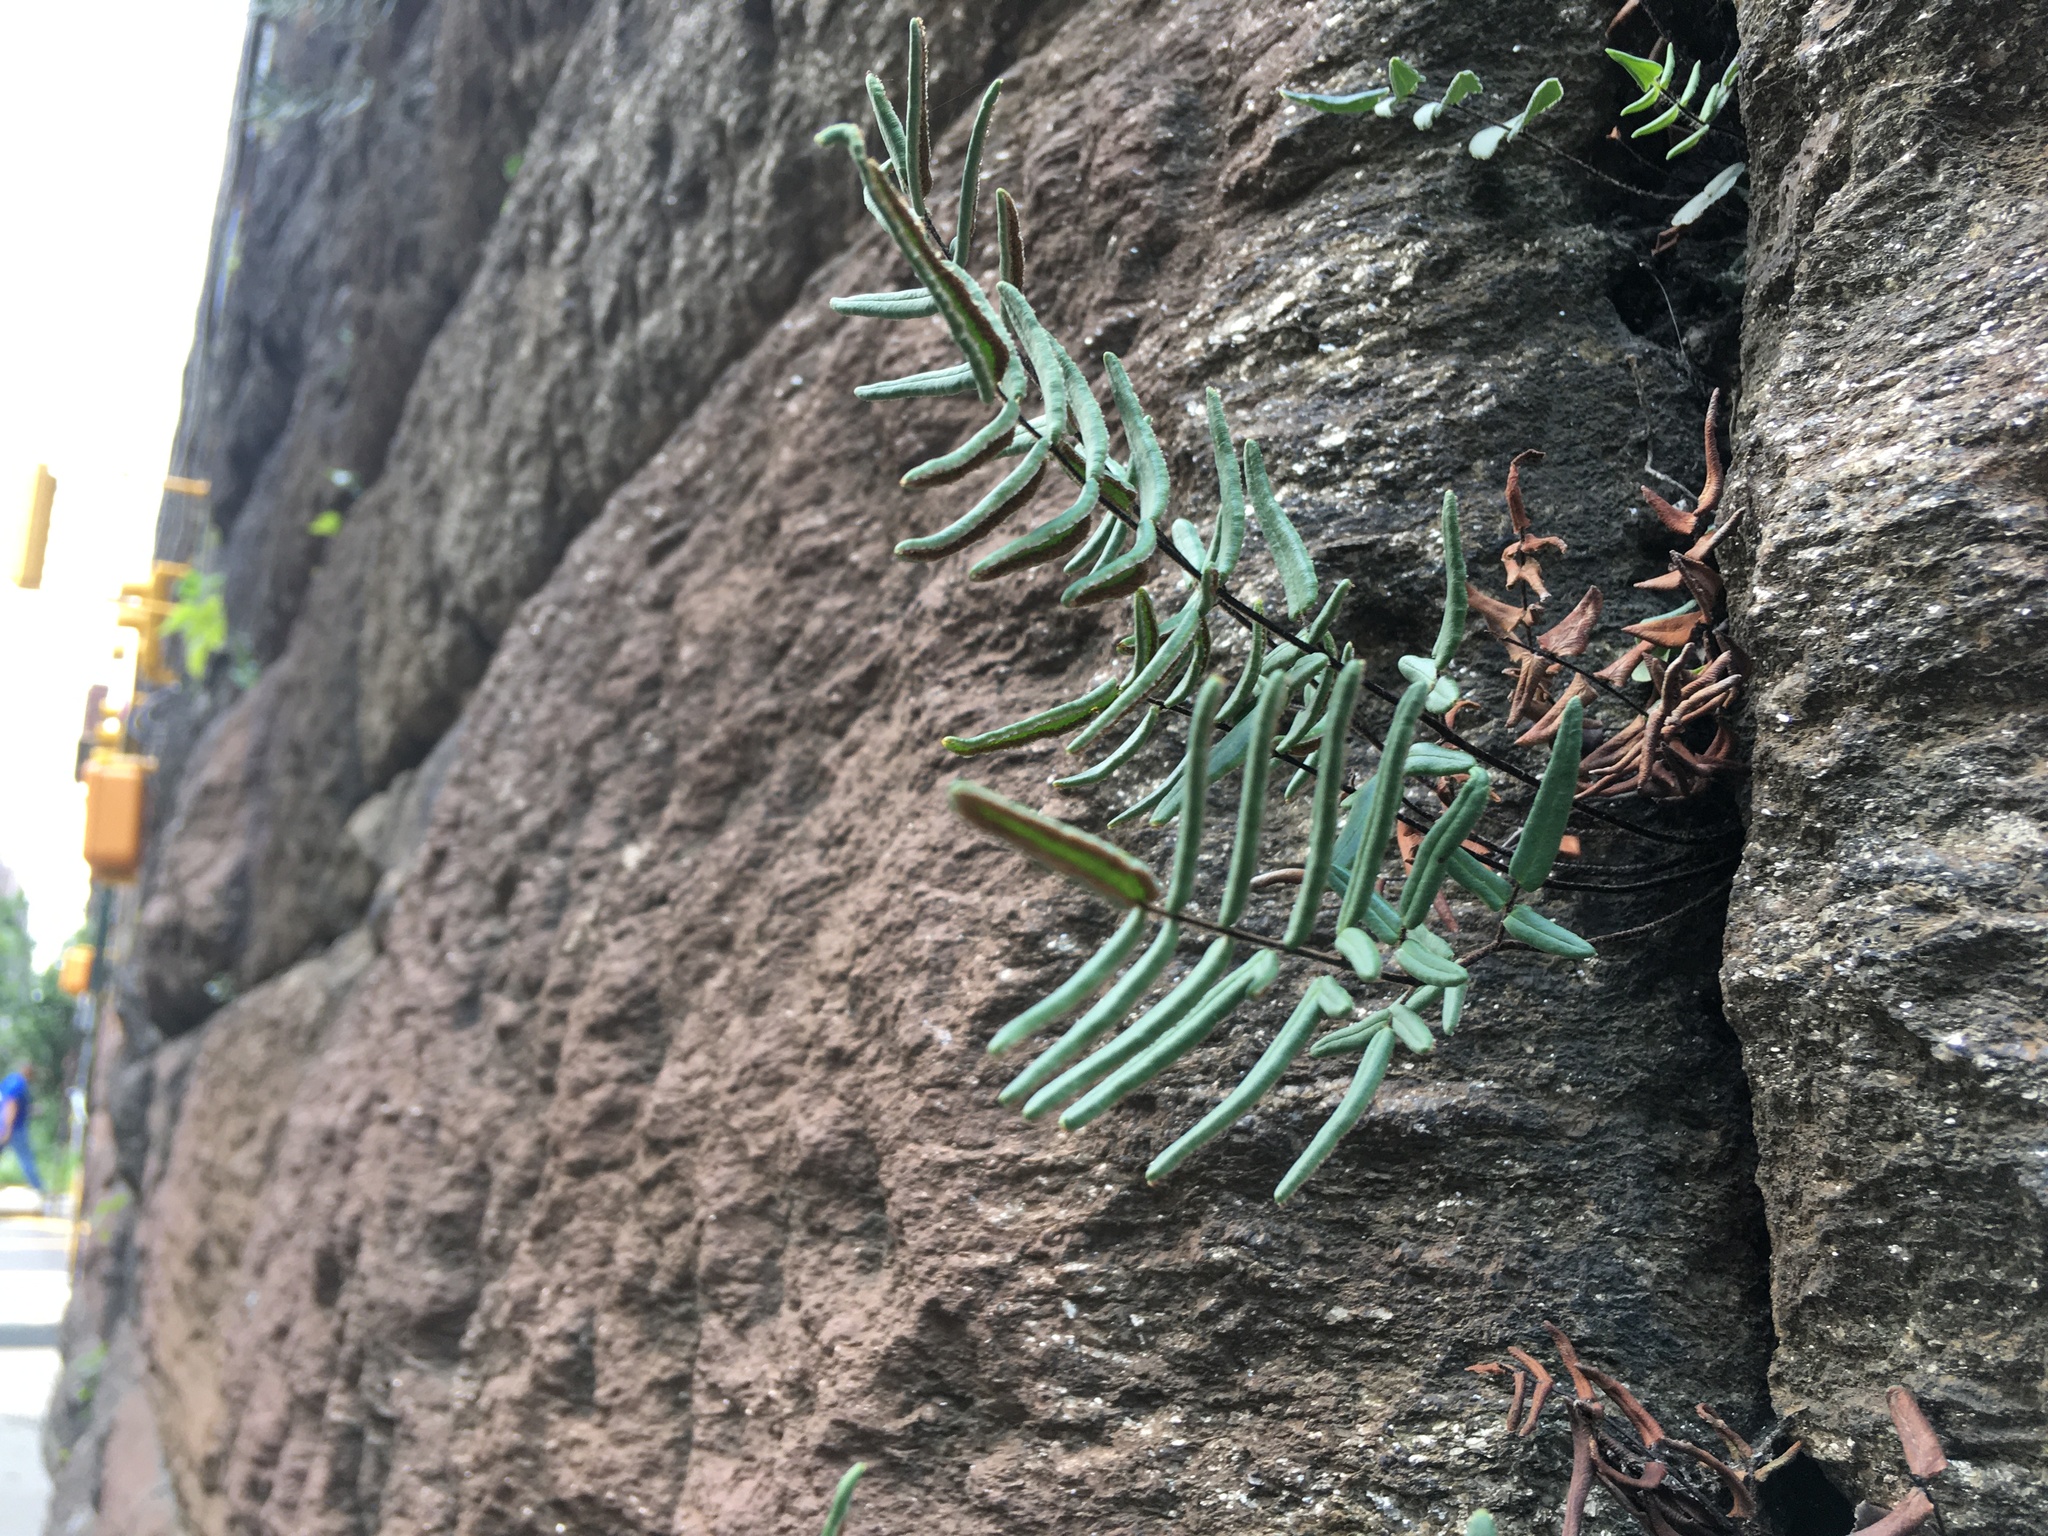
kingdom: Plantae
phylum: Tracheophyta
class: Polypodiopsida
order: Polypodiales
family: Pteridaceae
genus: Pellaea
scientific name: Pellaea atropurpurea
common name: Hairy cliffbrake
